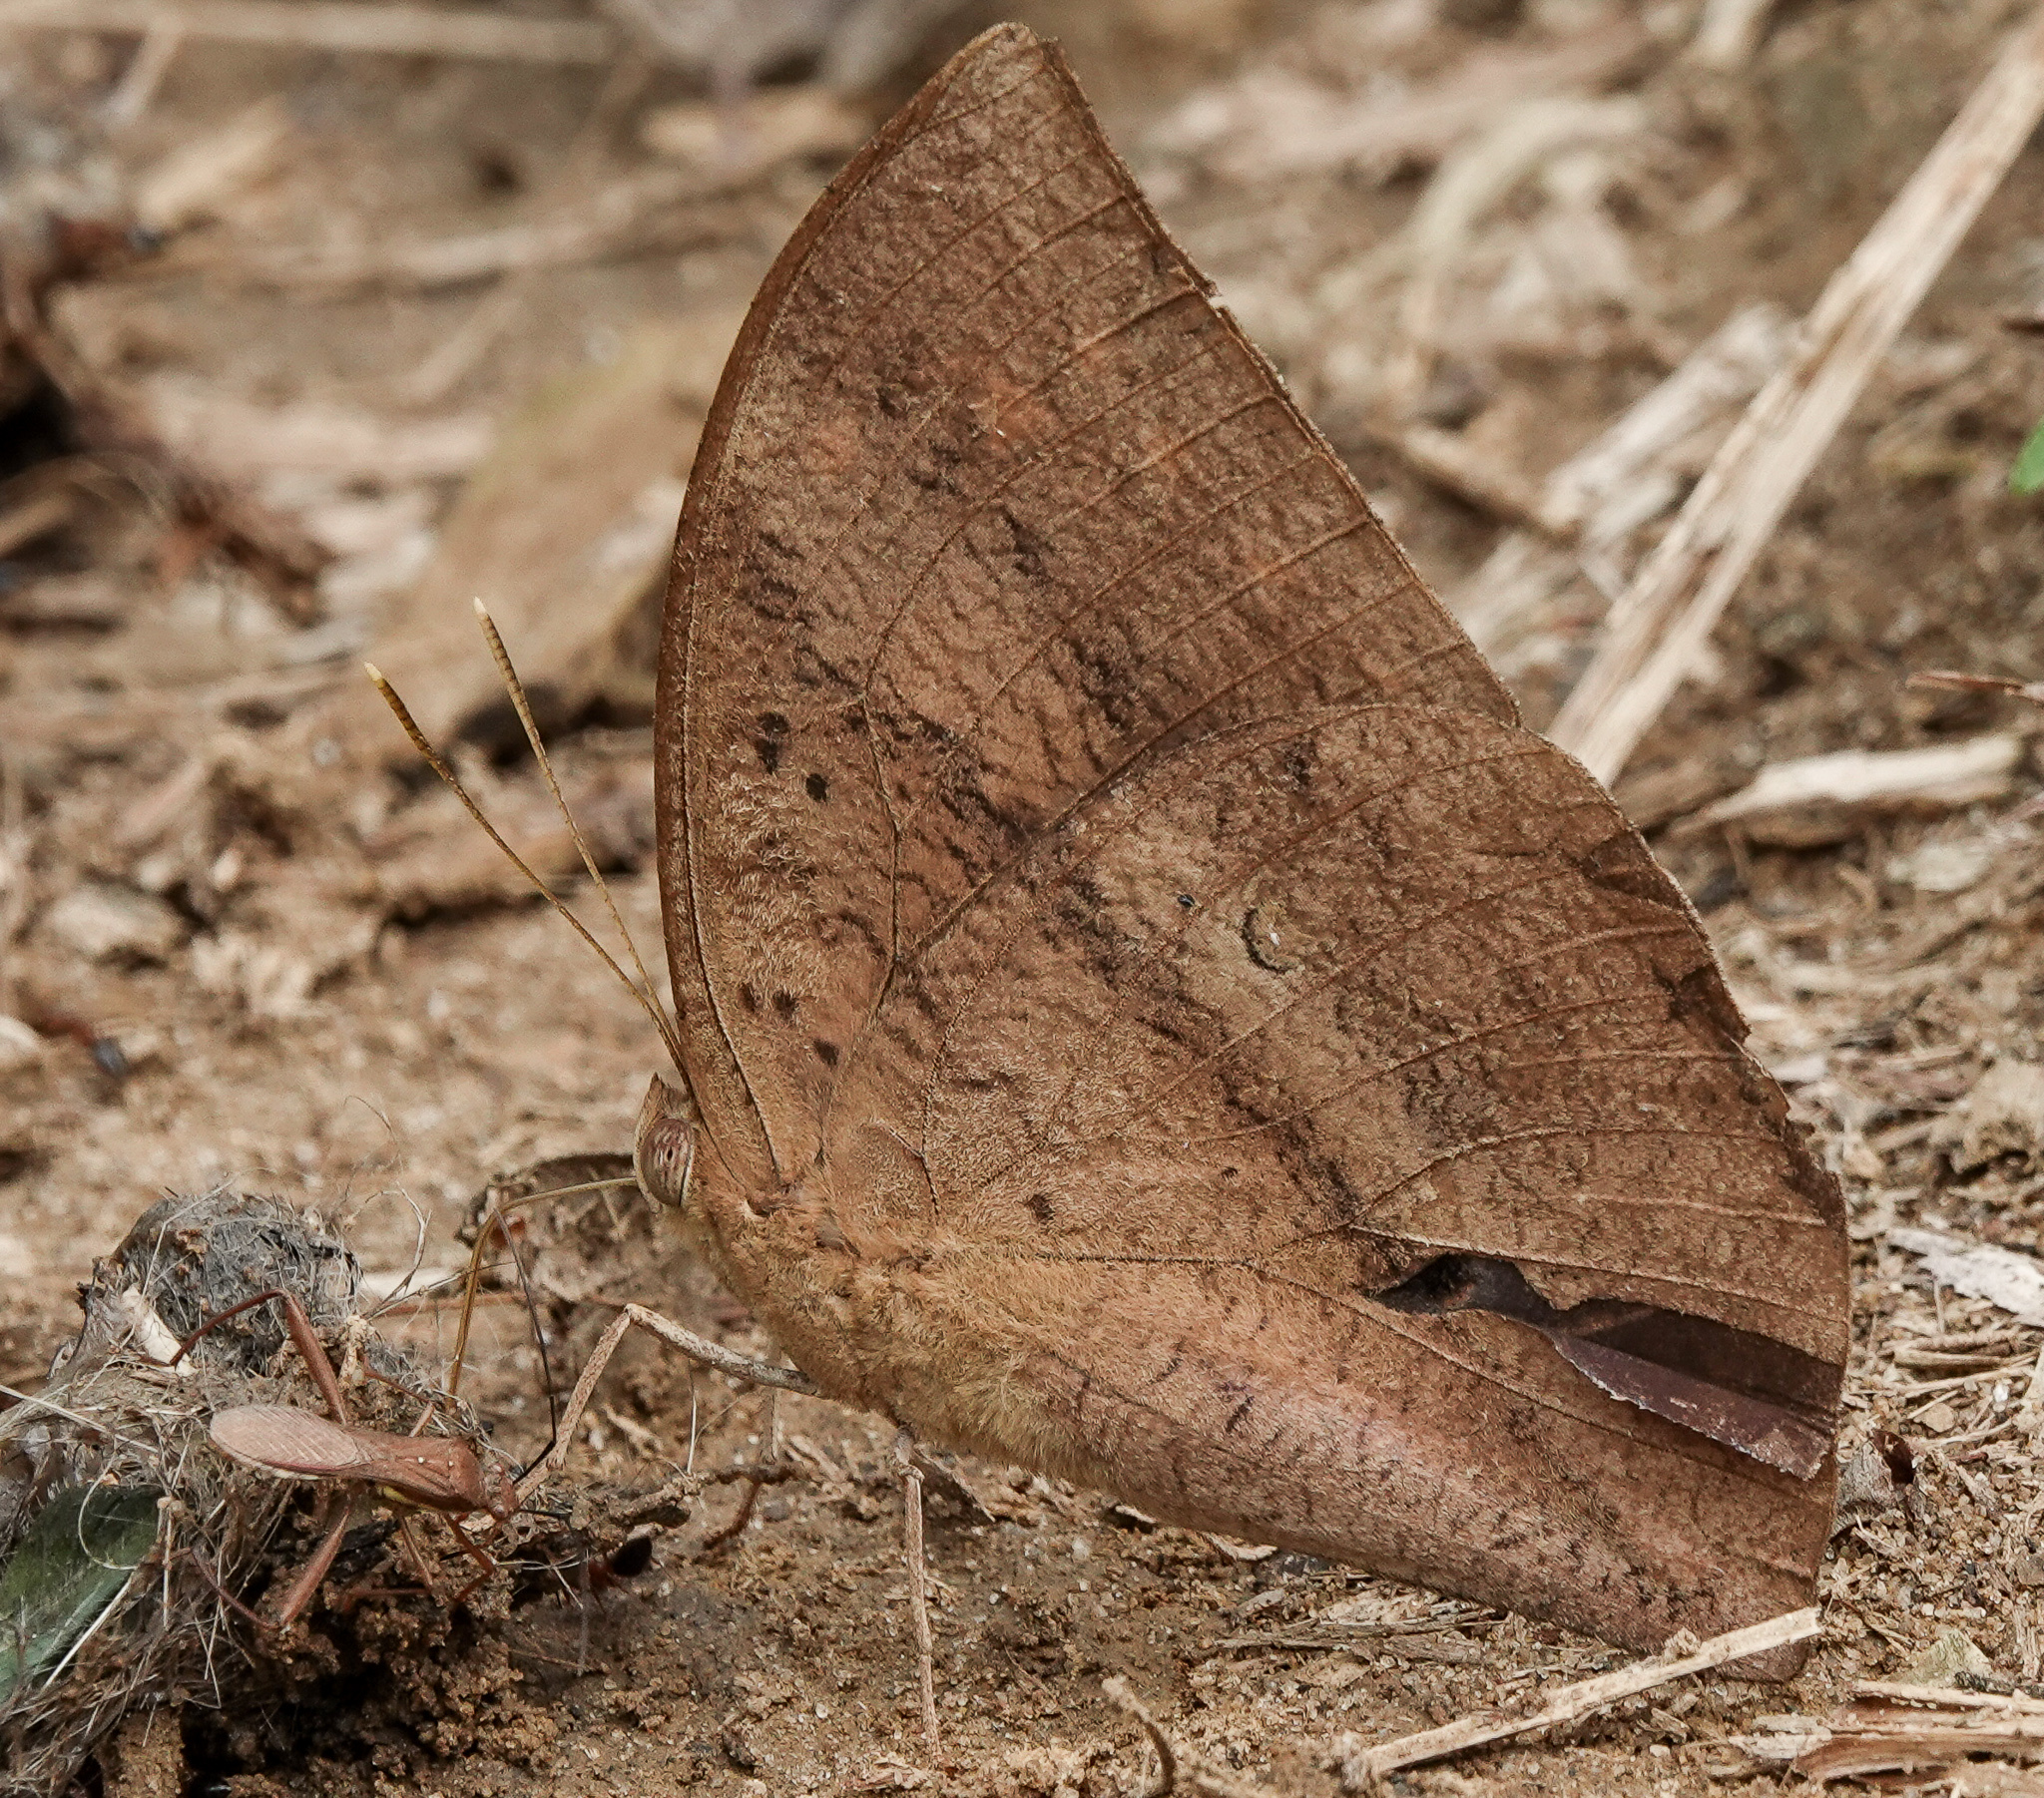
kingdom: Animalia
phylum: Arthropoda
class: Insecta
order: Lepidoptera
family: Nymphalidae
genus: Discophora
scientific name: Discophora sondaica
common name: Common duffer
